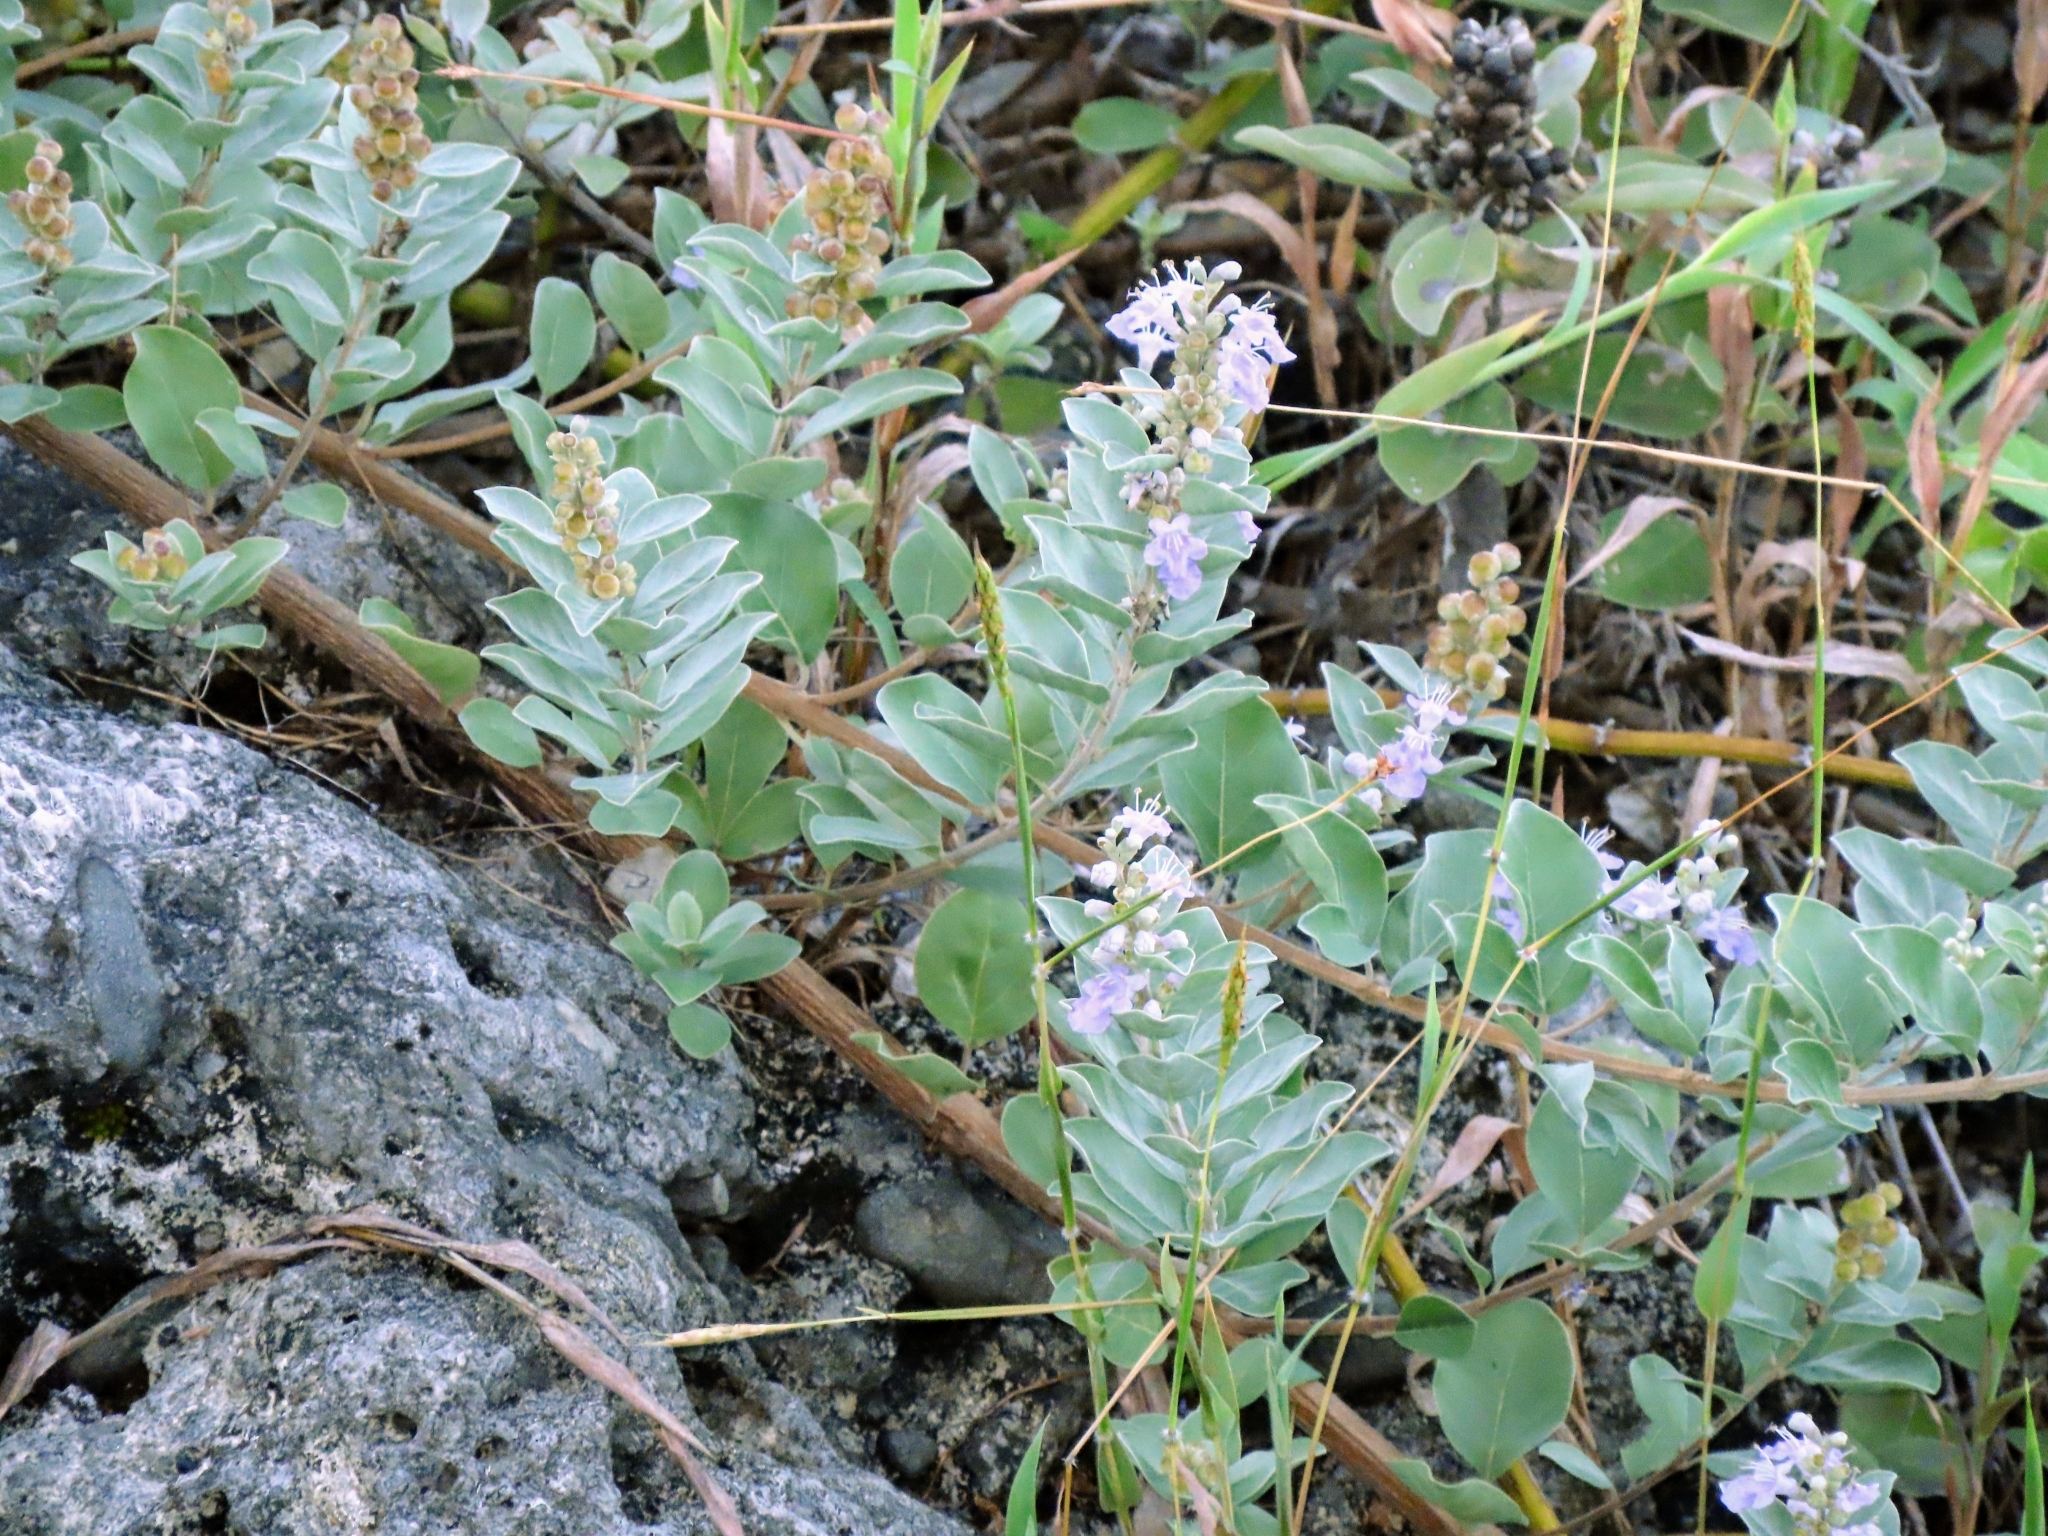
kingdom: Plantae
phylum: Tracheophyta
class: Magnoliopsida
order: Lamiales
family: Lamiaceae
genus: Vitex
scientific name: Vitex rotundifolia
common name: Beach vitex
